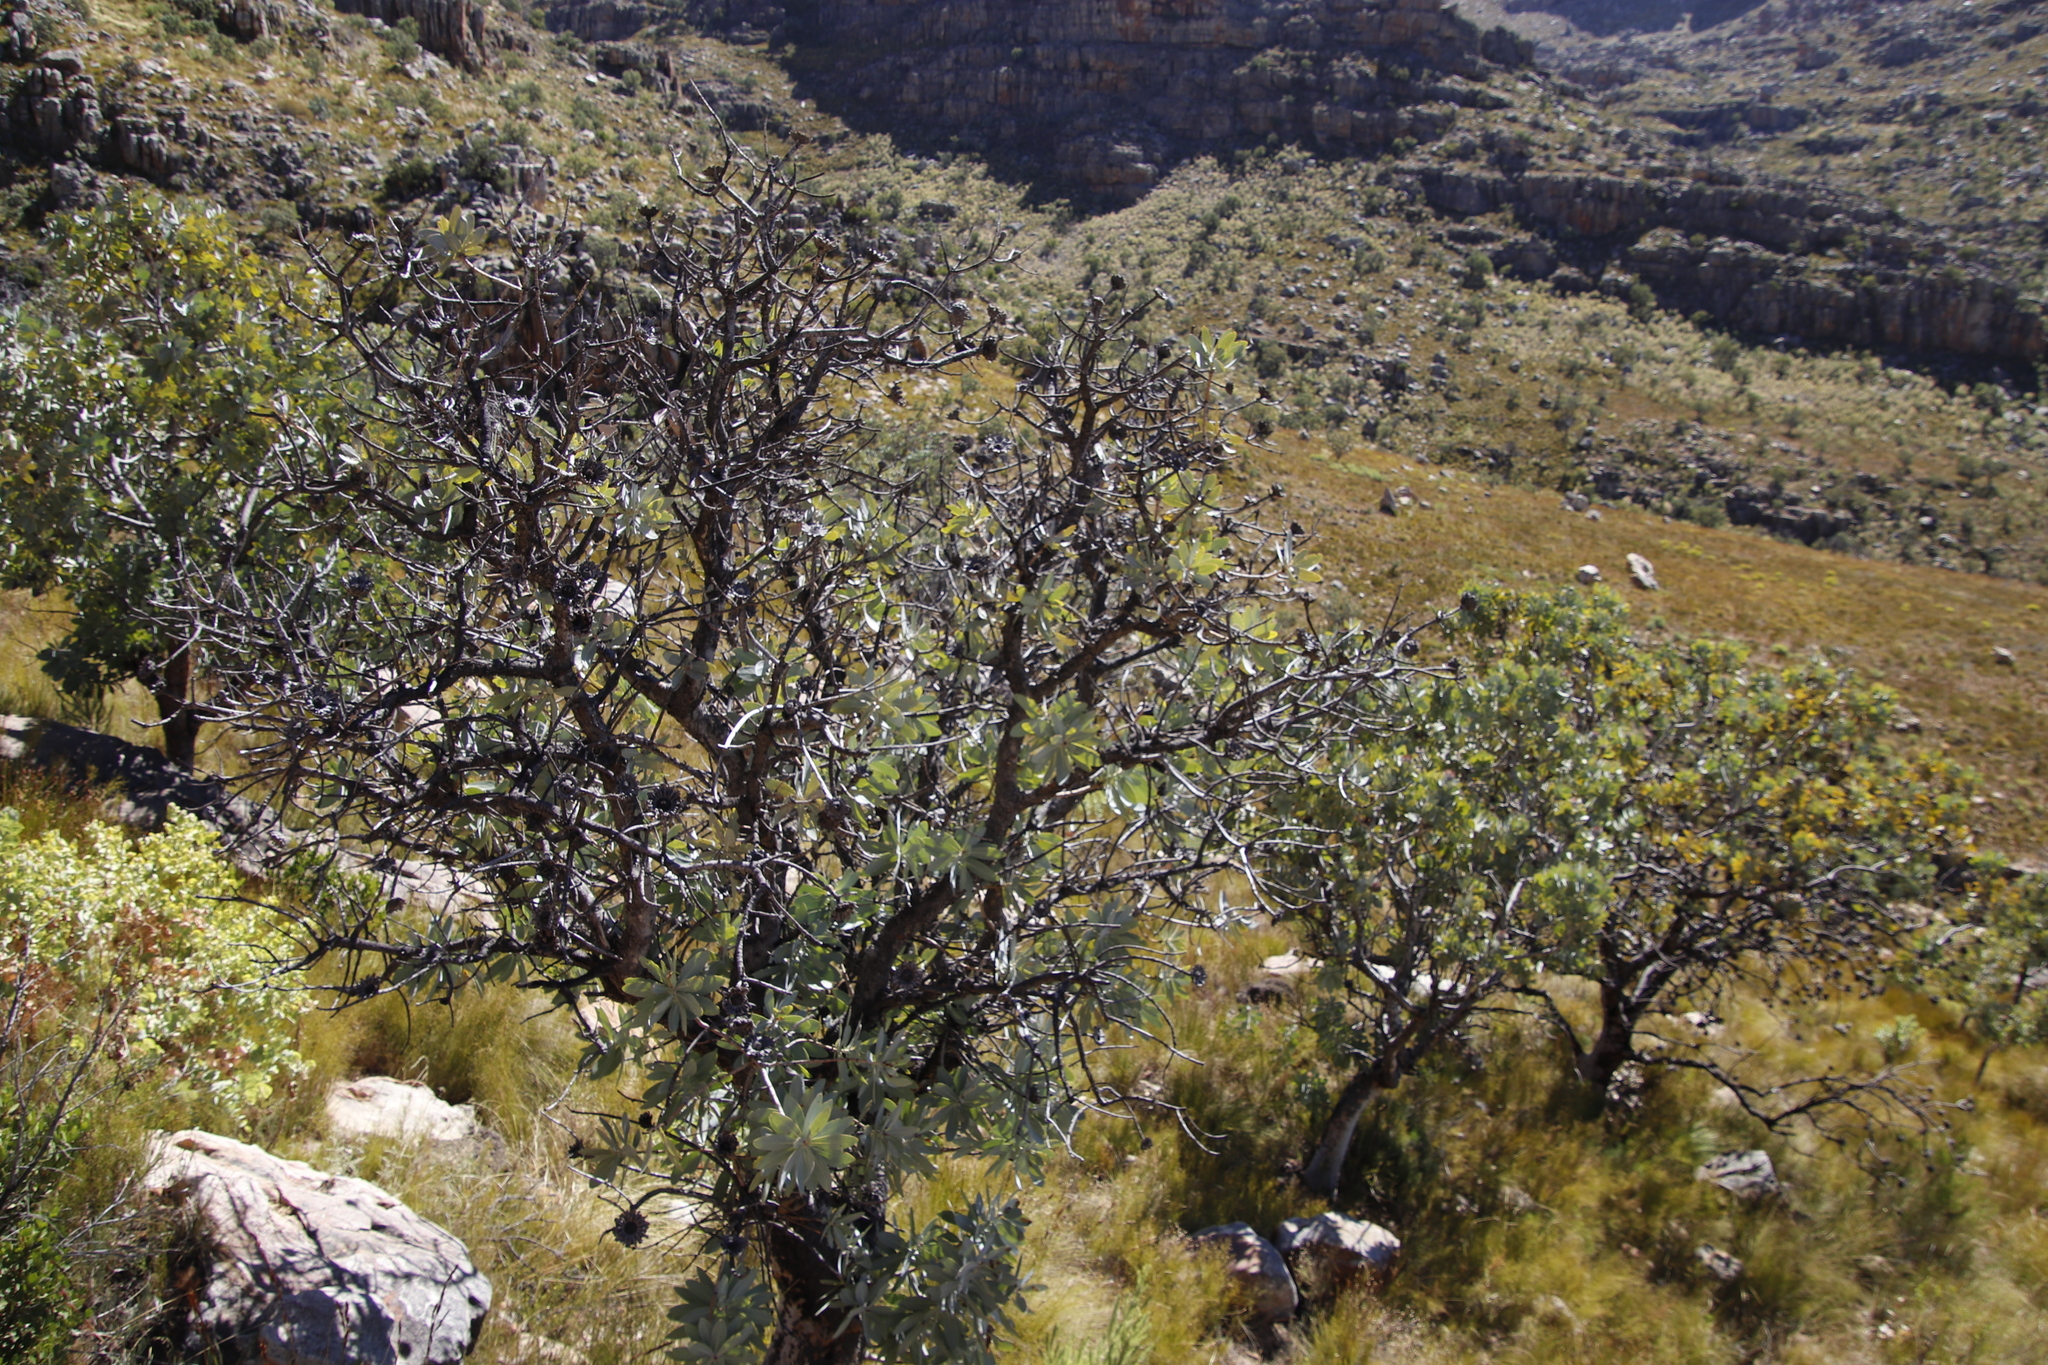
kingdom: Plantae
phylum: Tracheophyta
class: Magnoliopsida
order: Proteales
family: Proteaceae
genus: Protea
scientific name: Protea nitida
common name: Tree protea
